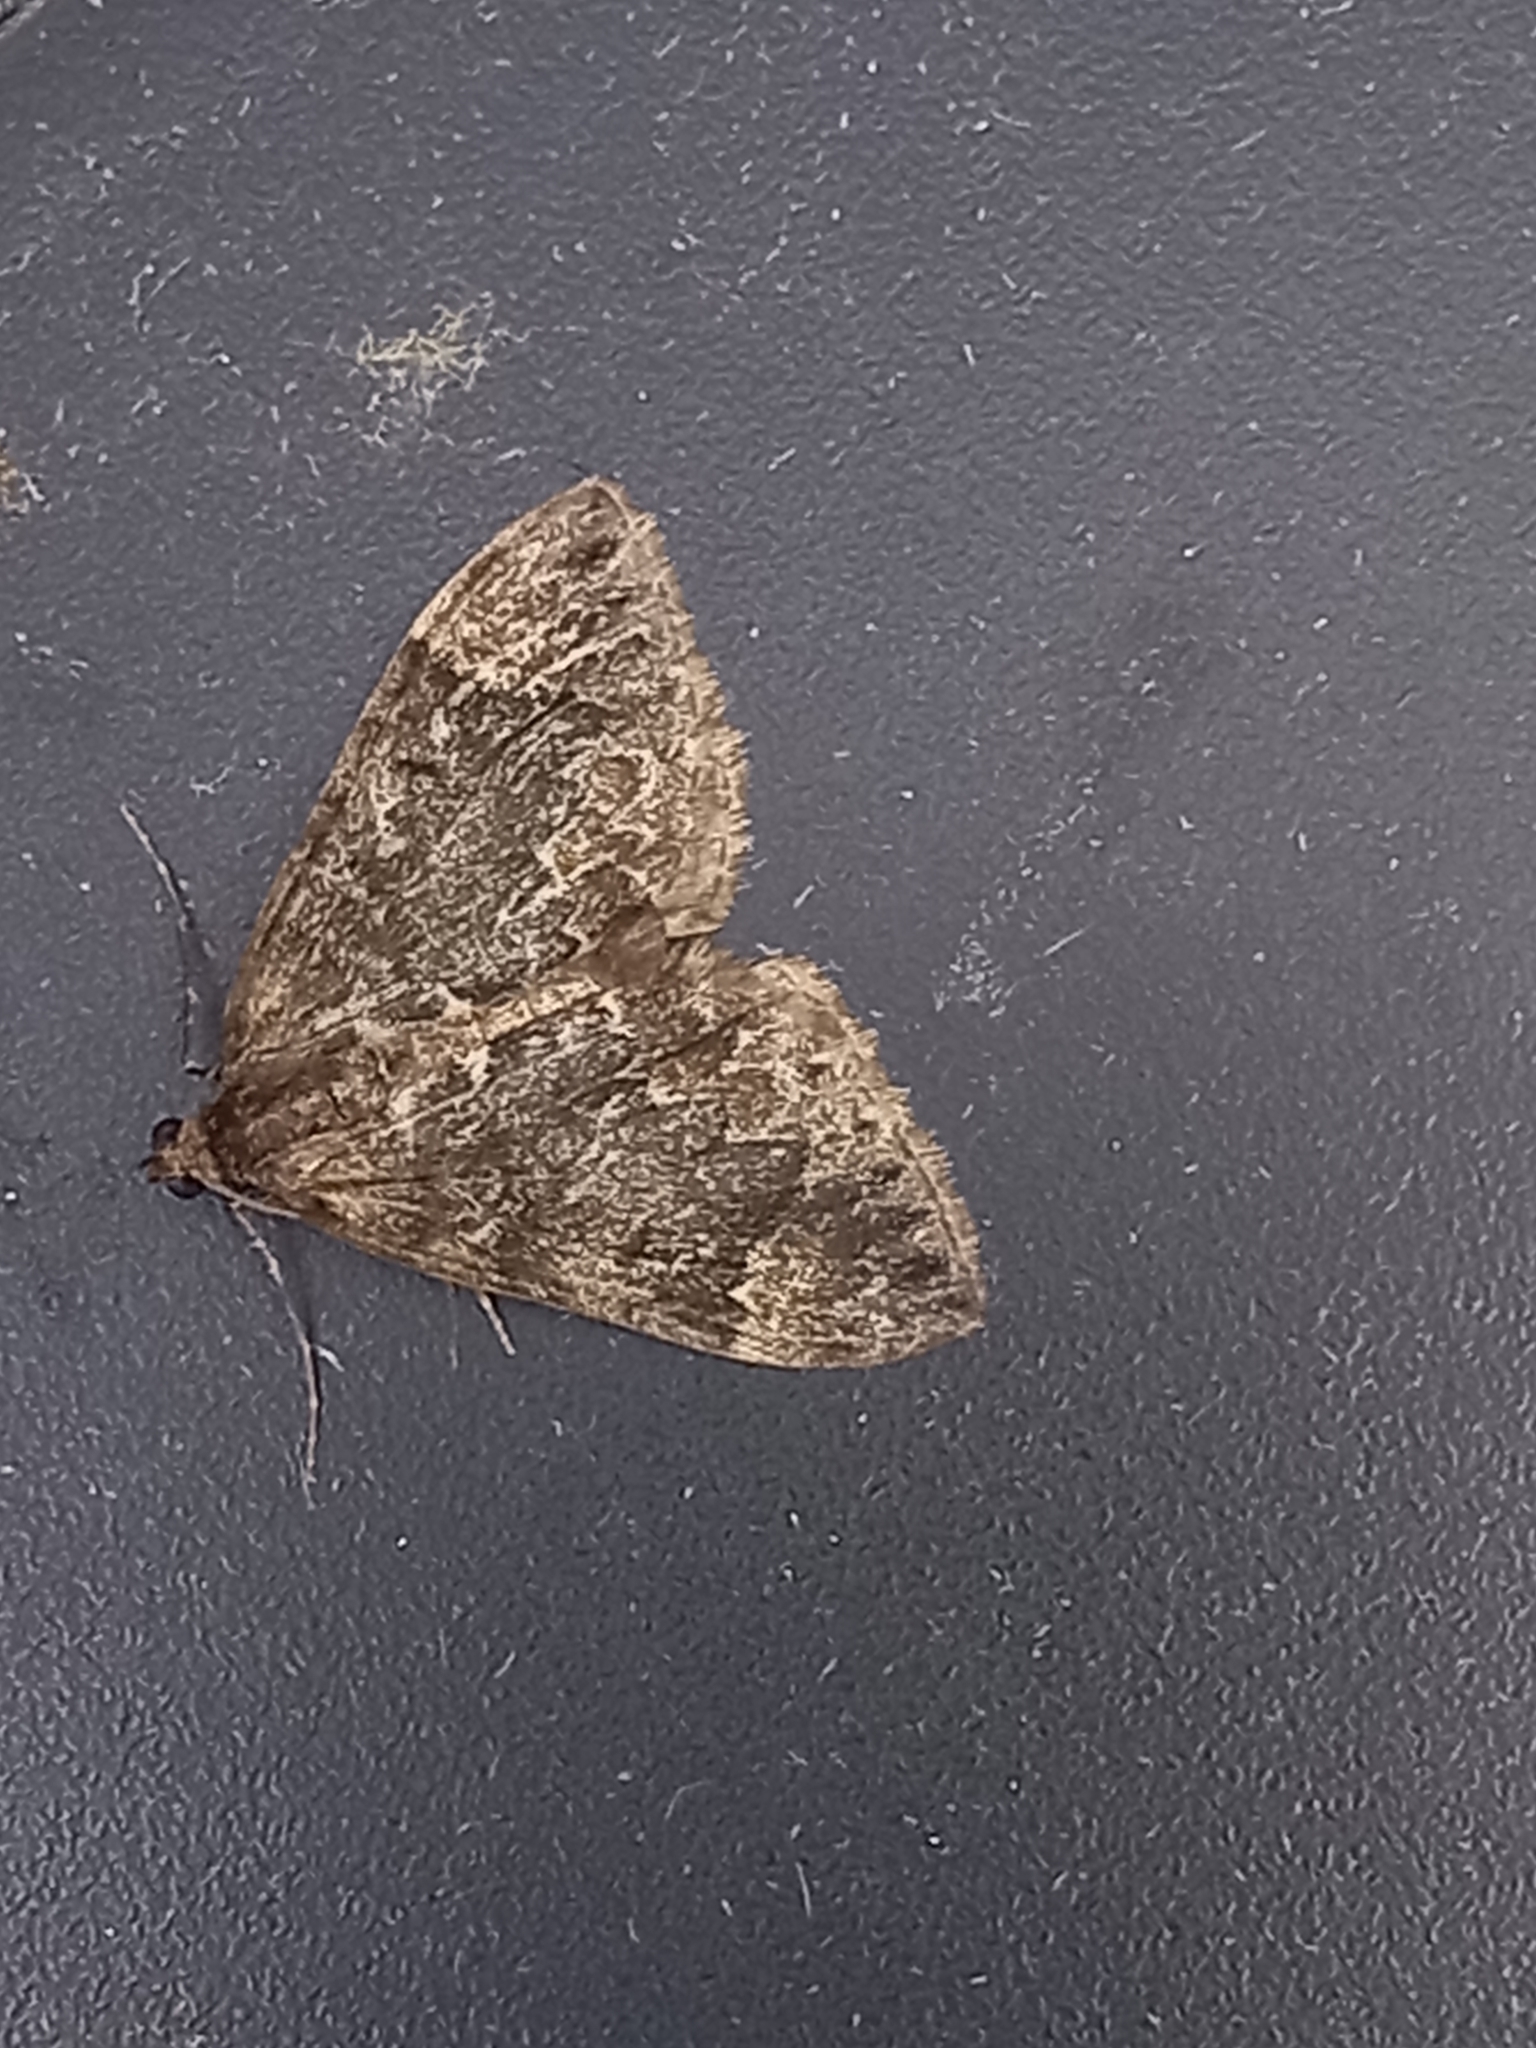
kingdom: Animalia
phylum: Arthropoda
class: Insecta
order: Lepidoptera
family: Geometridae
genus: Dysstroma
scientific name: Dysstroma truncata
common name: Common marbled carpet
